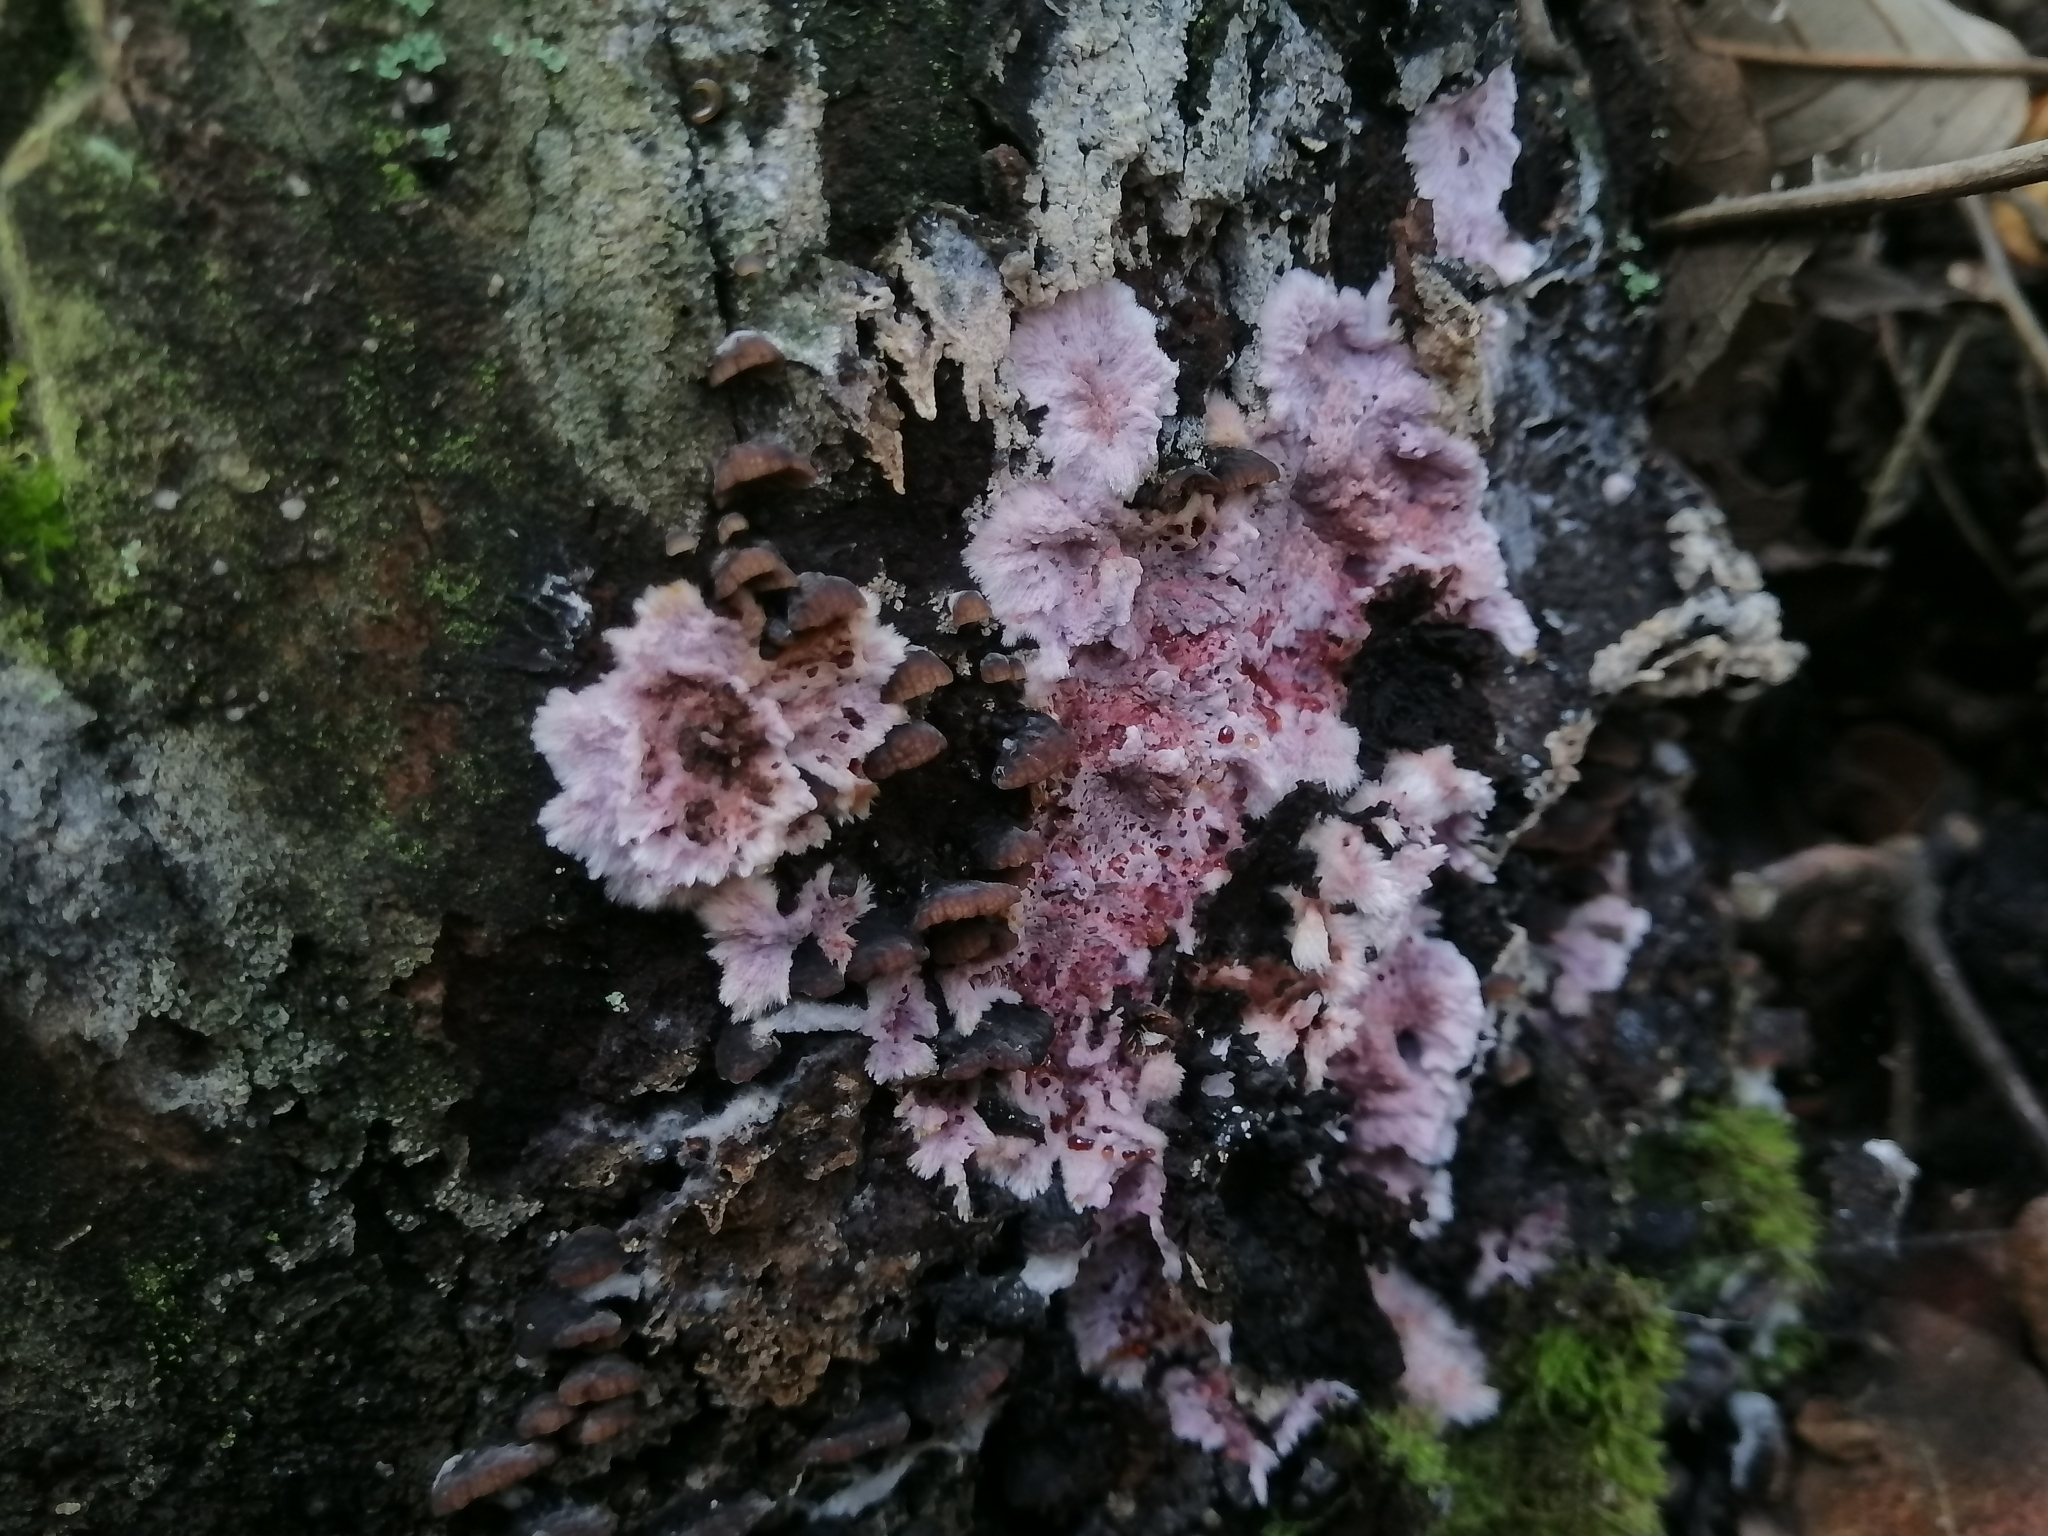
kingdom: Fungi
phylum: Basidiomycota
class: Agaricomycetes
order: Atheliales
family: Atheliaceae
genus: Hypochnella
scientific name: Hypochnella violacea
